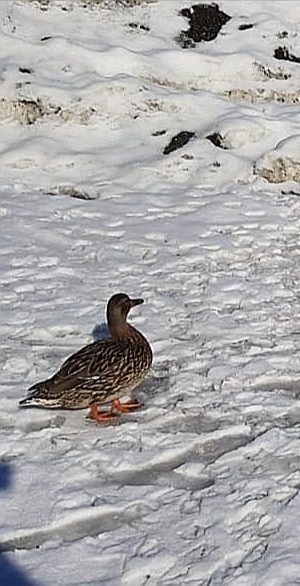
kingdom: Animalia
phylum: Chordata
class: Aves
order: Anseriformes
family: Anatidae
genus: Anas
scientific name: Anas platyrhynchos
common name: Mallard
